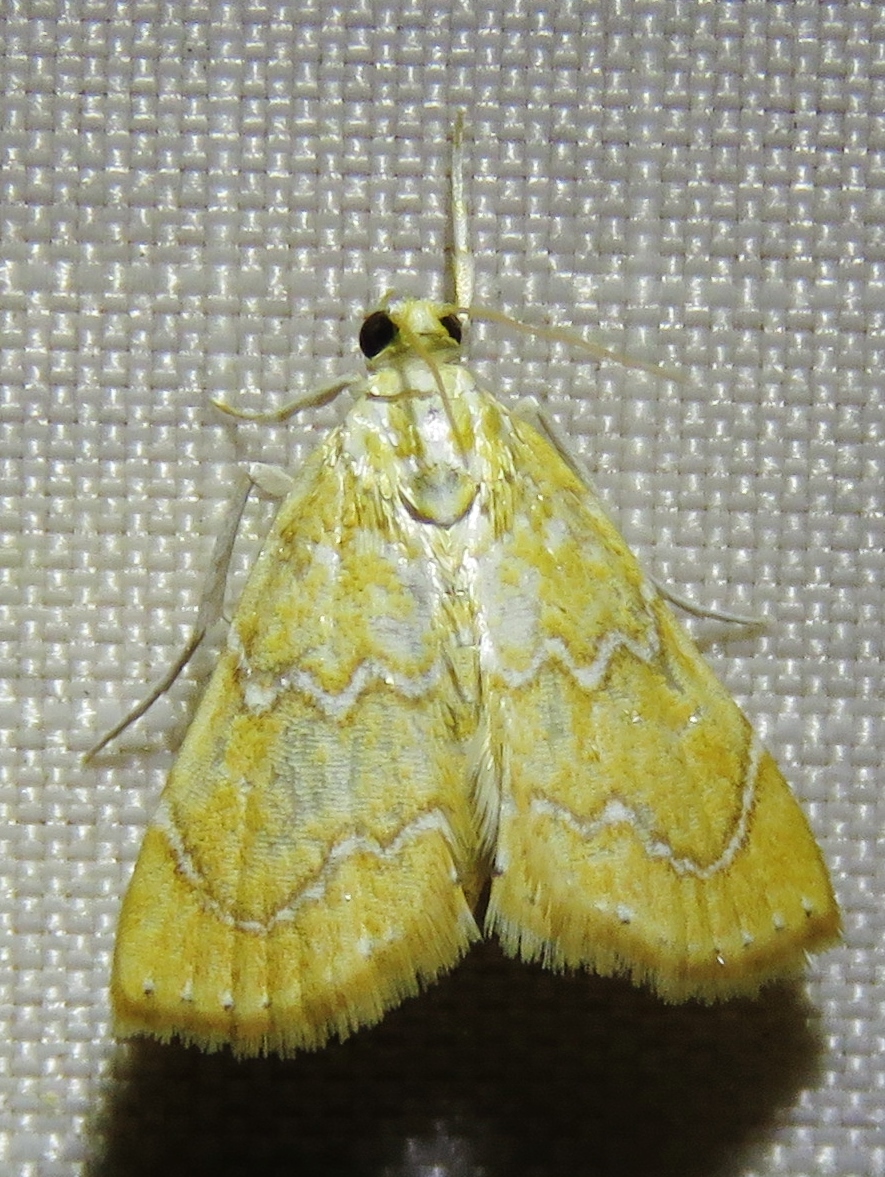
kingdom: Animalia
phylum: Arthropoda
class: Insecta
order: Lepidoptera
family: Crambidae
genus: Glaphyria
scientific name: Glaphyria sesquistrialis
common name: White-roped glaphyria
